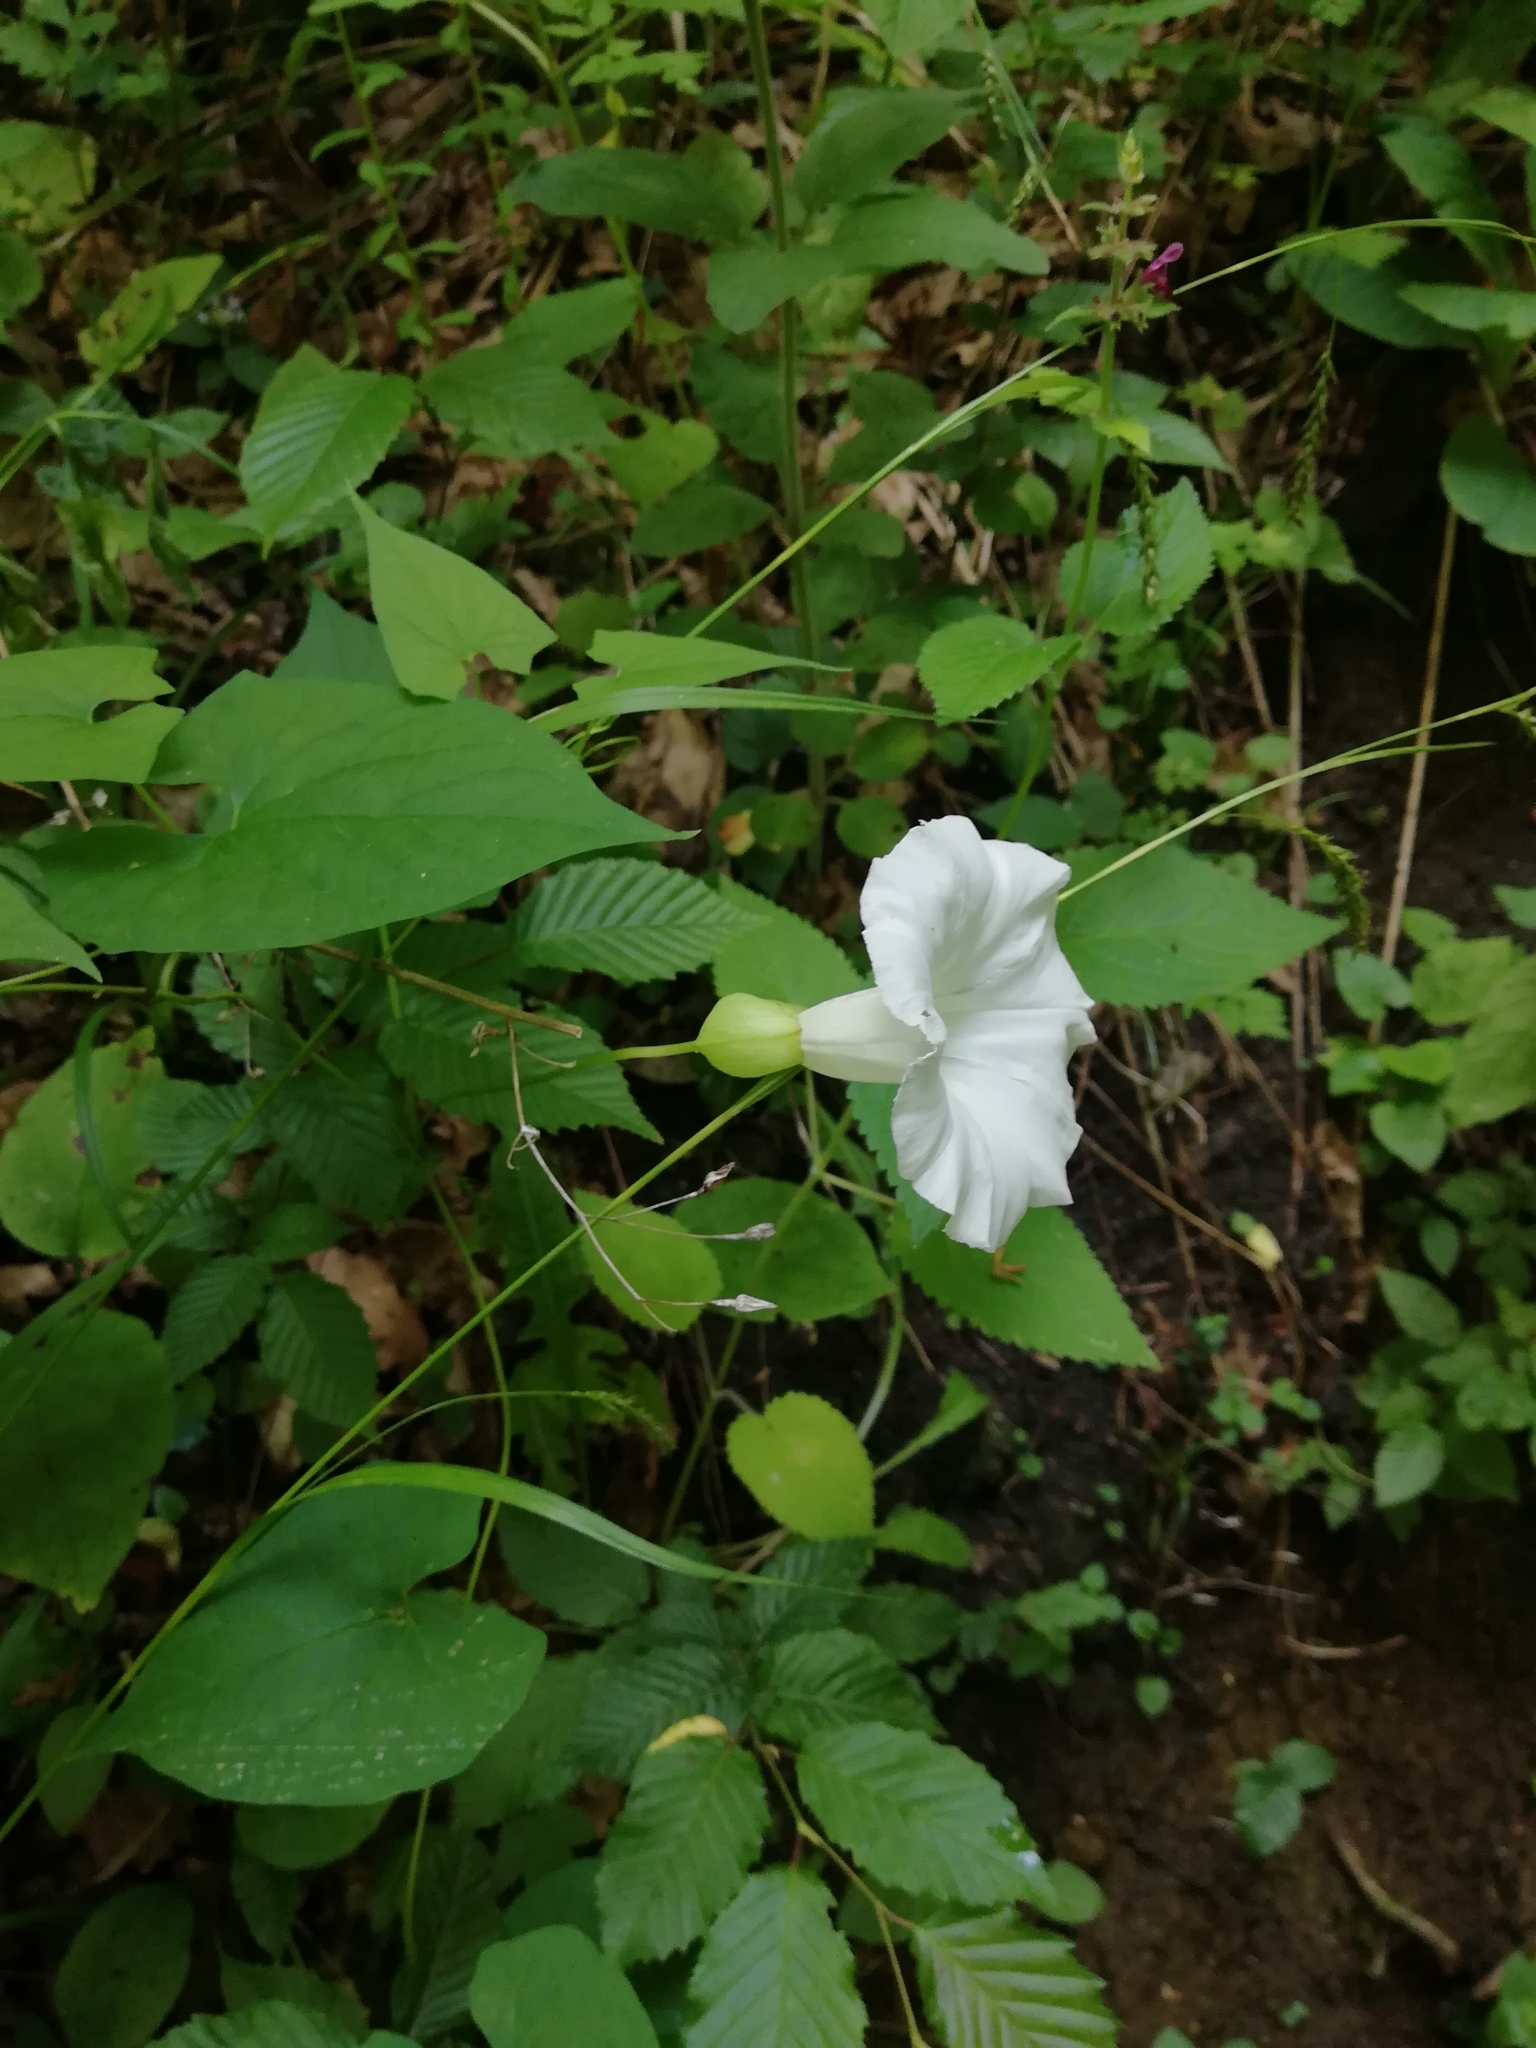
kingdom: Plantae
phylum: Tracheophyta
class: Magnoliopsida
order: Solanales
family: Convolvulaceae
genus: Calystegia
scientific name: Calystegia silvatica
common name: Large bindweed
